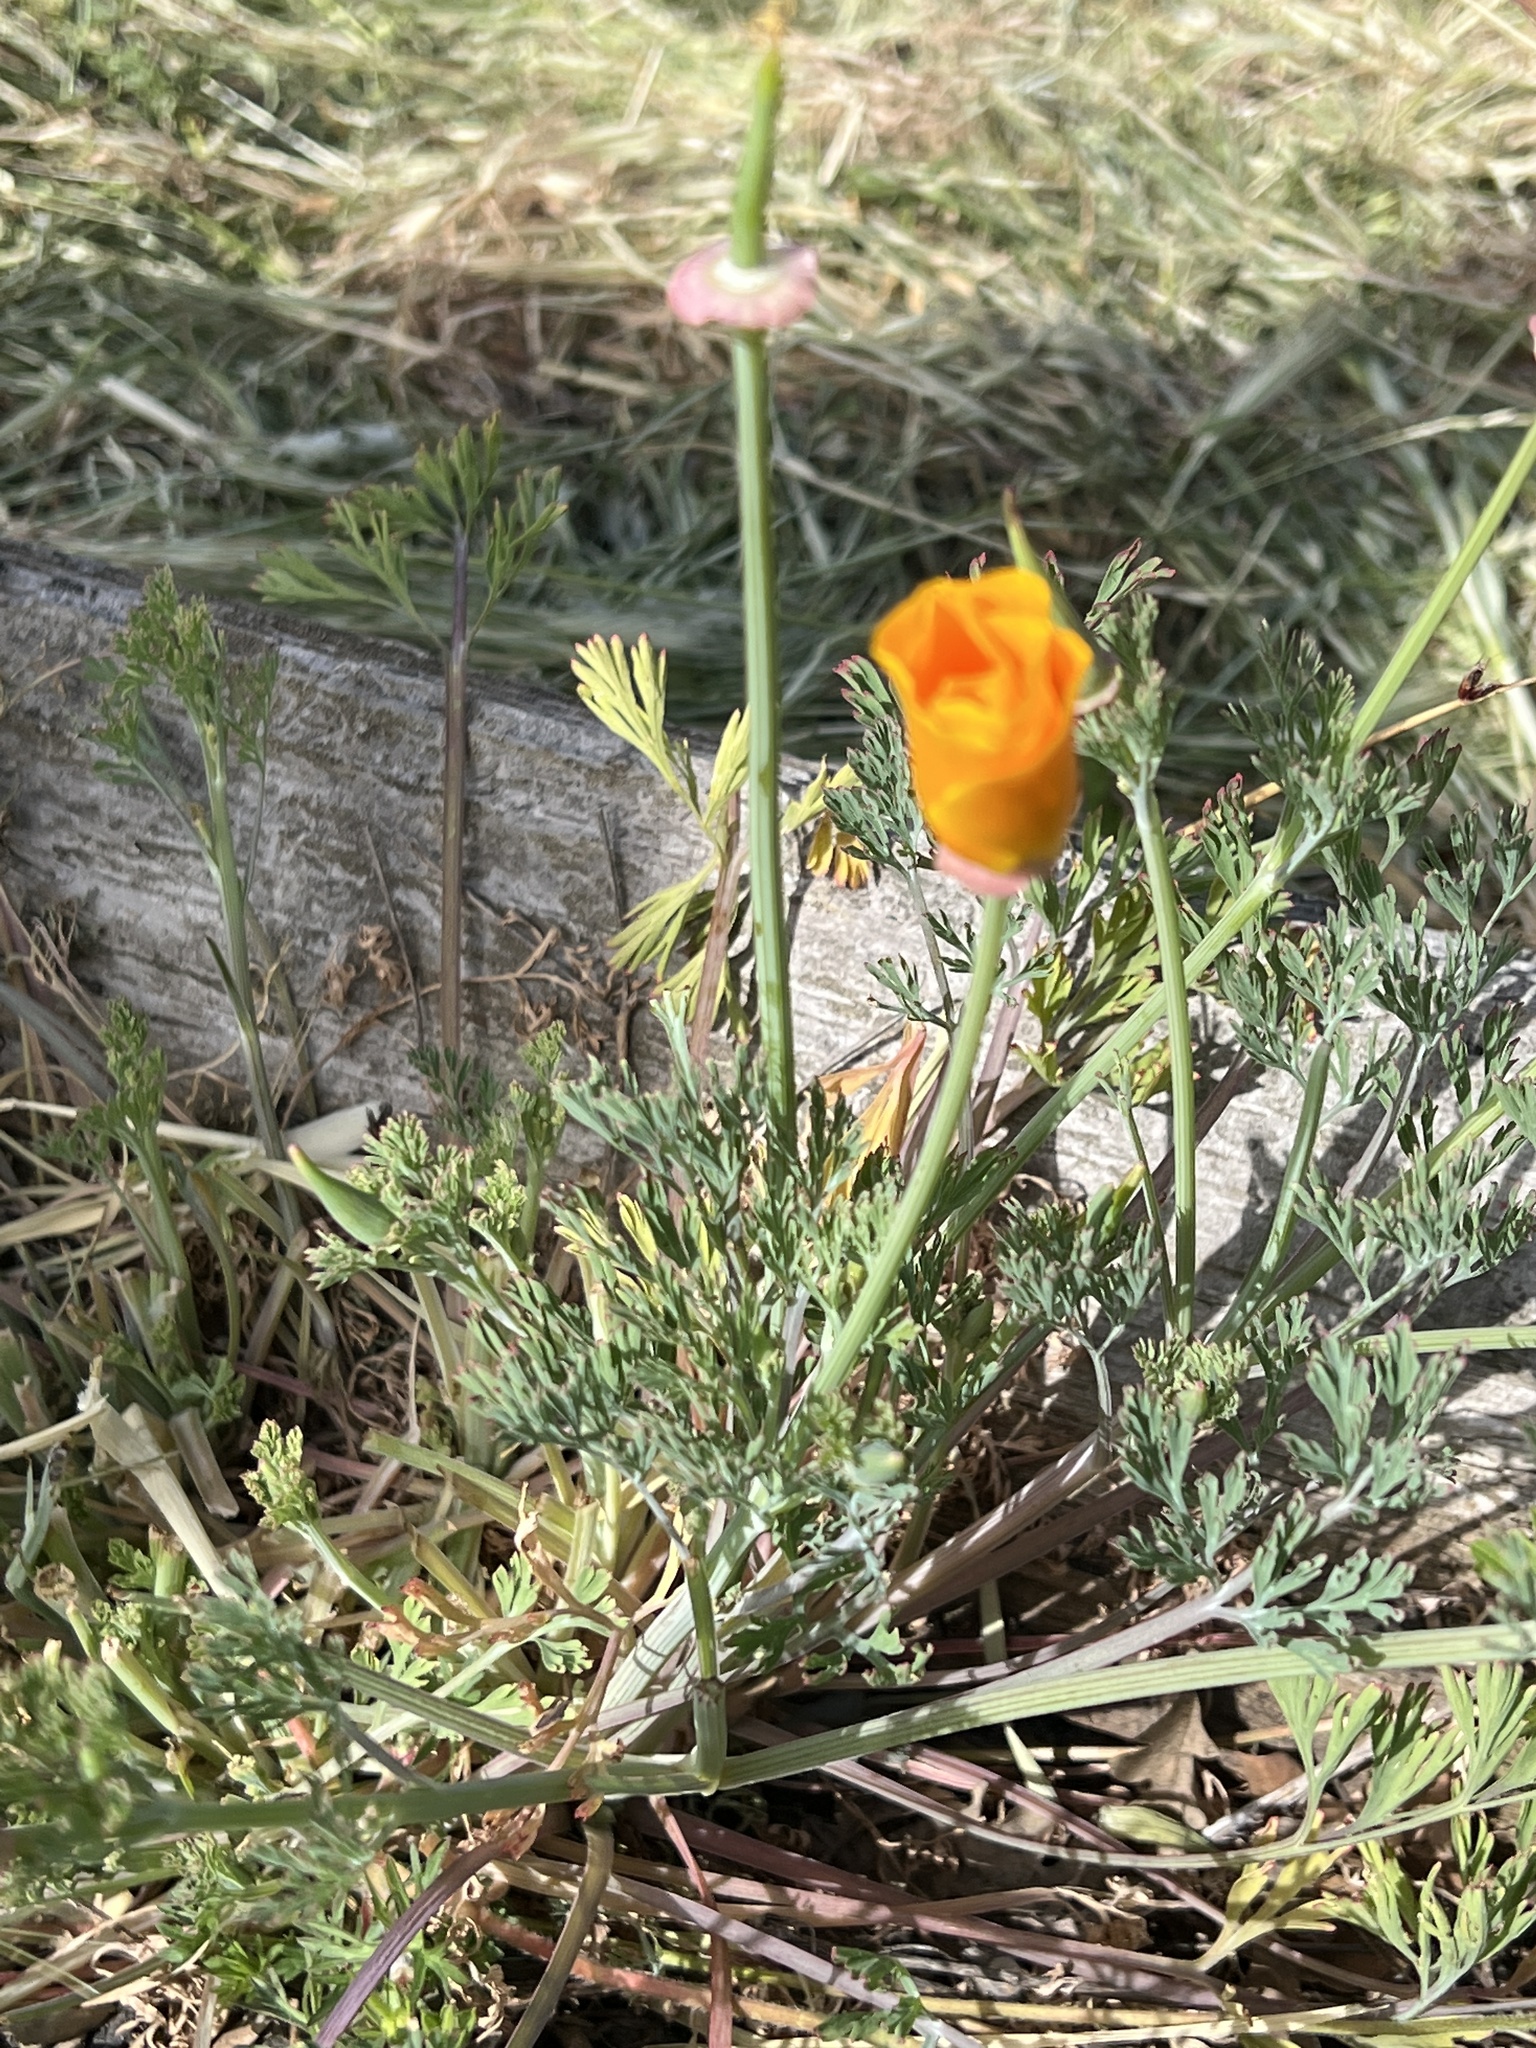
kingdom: Plantae
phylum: Tracheophyta
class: Magnoliopsida
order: Ranunculales
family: Papaveraceae
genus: Eschscholzia
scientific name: Eschscholzia californica
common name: California poppy
